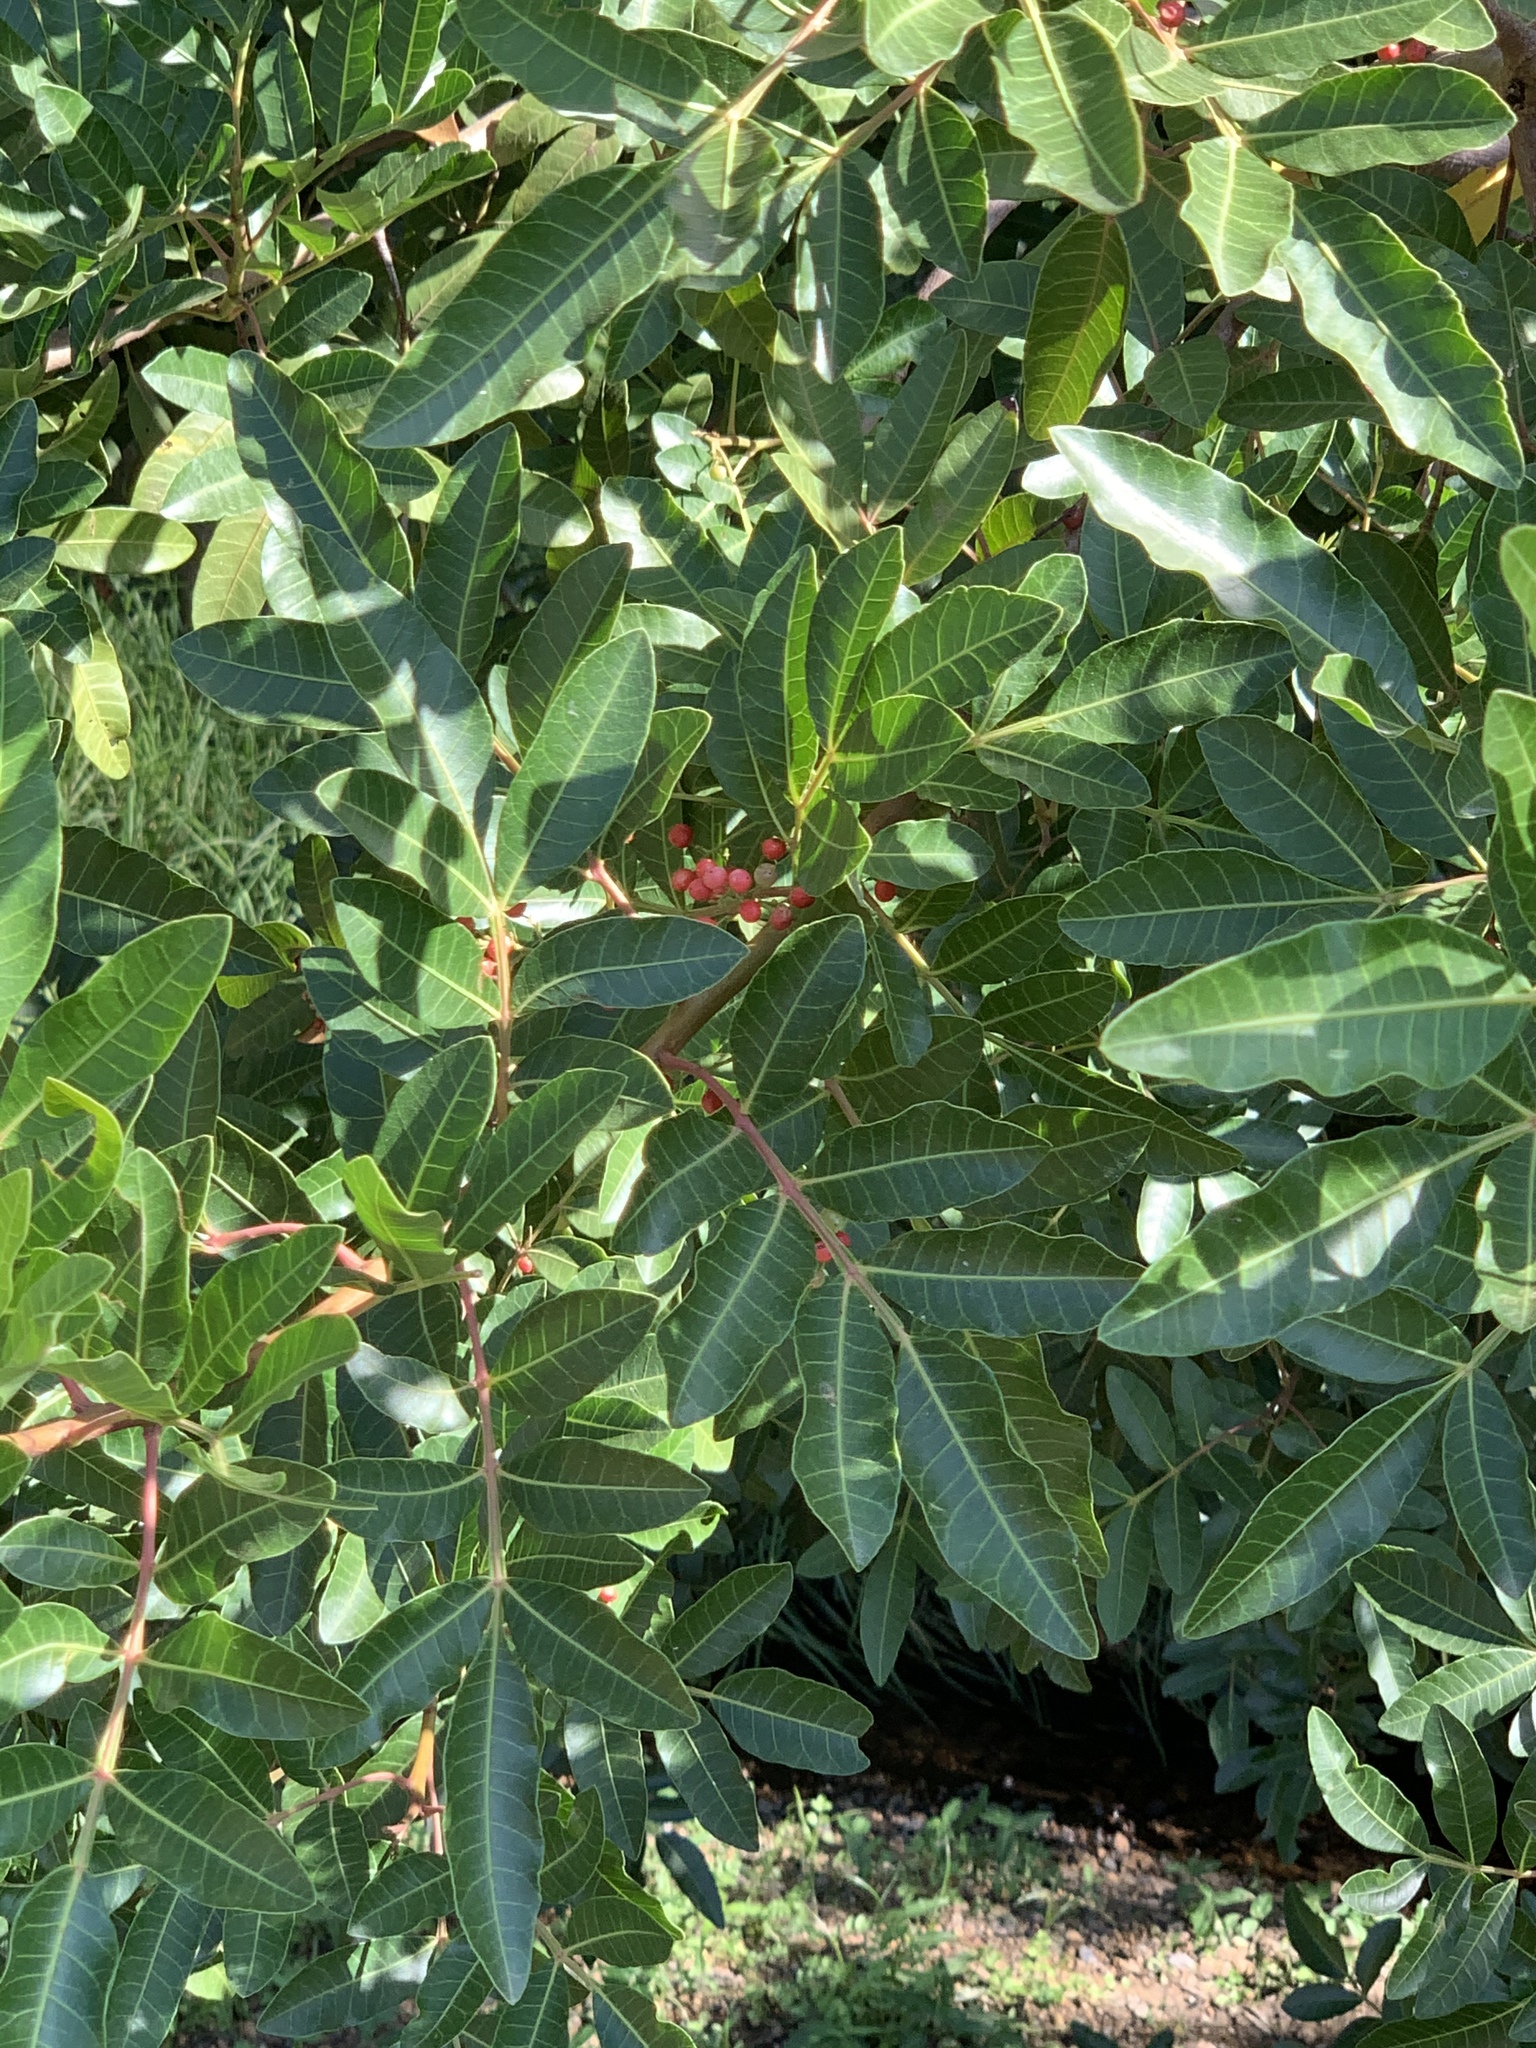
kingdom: Plantae
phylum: Tracheophyta
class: Magnoliopsida
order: Sapindales
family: Anacardiaceae
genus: Schinus
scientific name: Schinus terebinthifolia
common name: Brazilian peppertree
